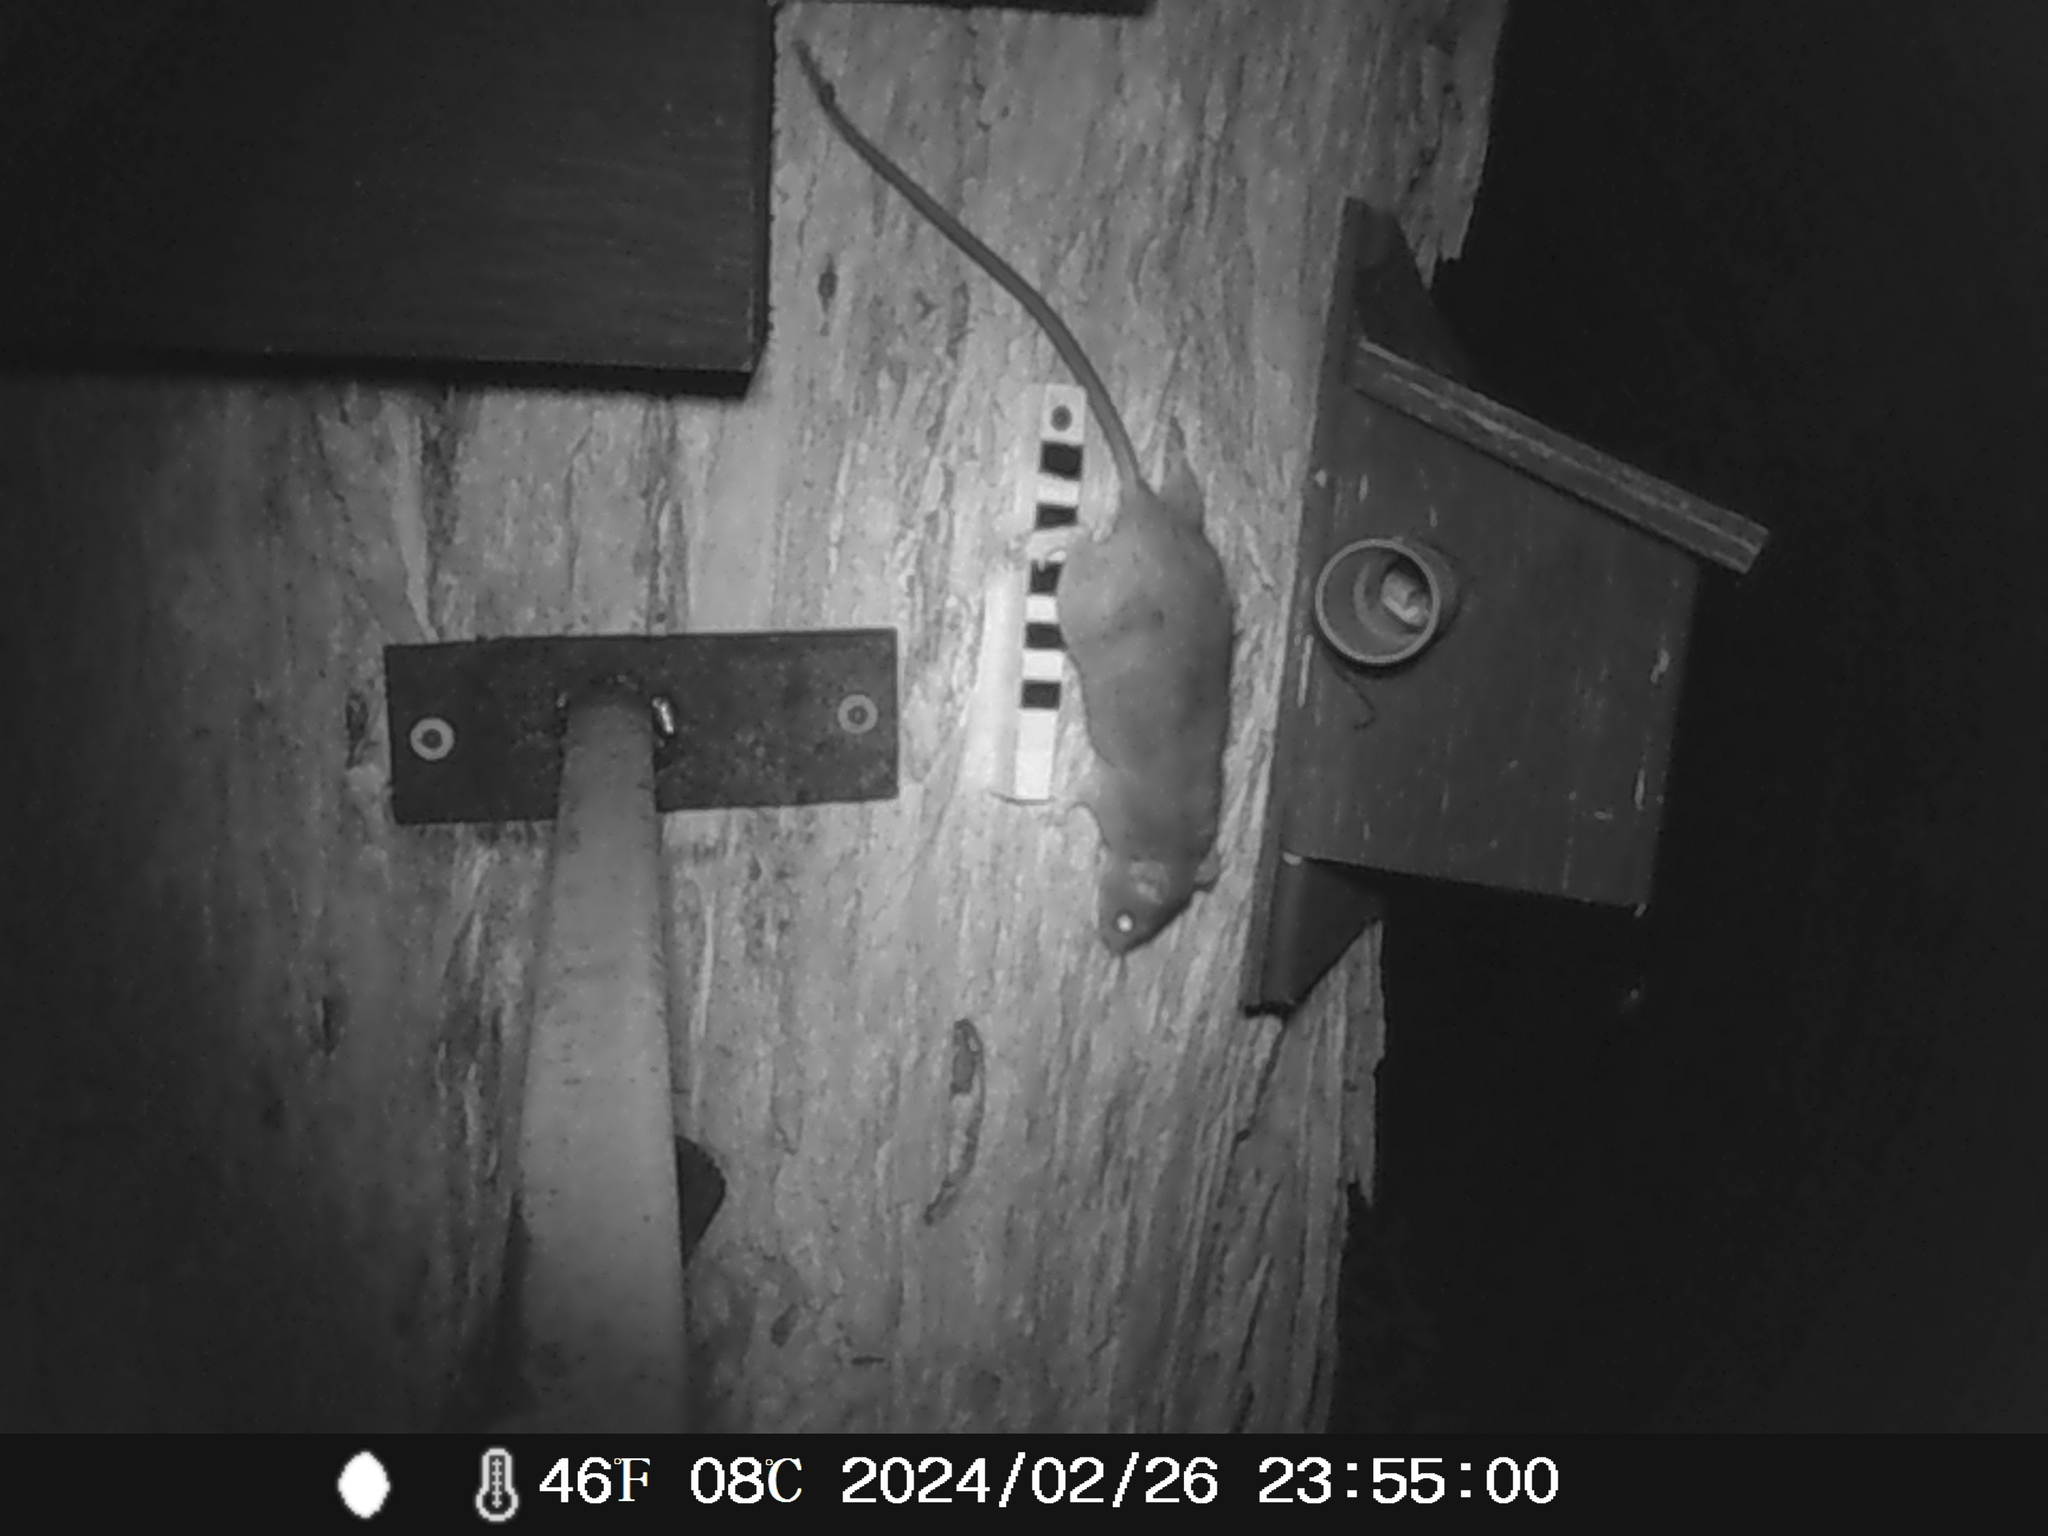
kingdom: Animalia
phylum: Chordata
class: Mammalia
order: Rodentia
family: Muridae
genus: Rattus
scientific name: Rattus rattus
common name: Black rat
